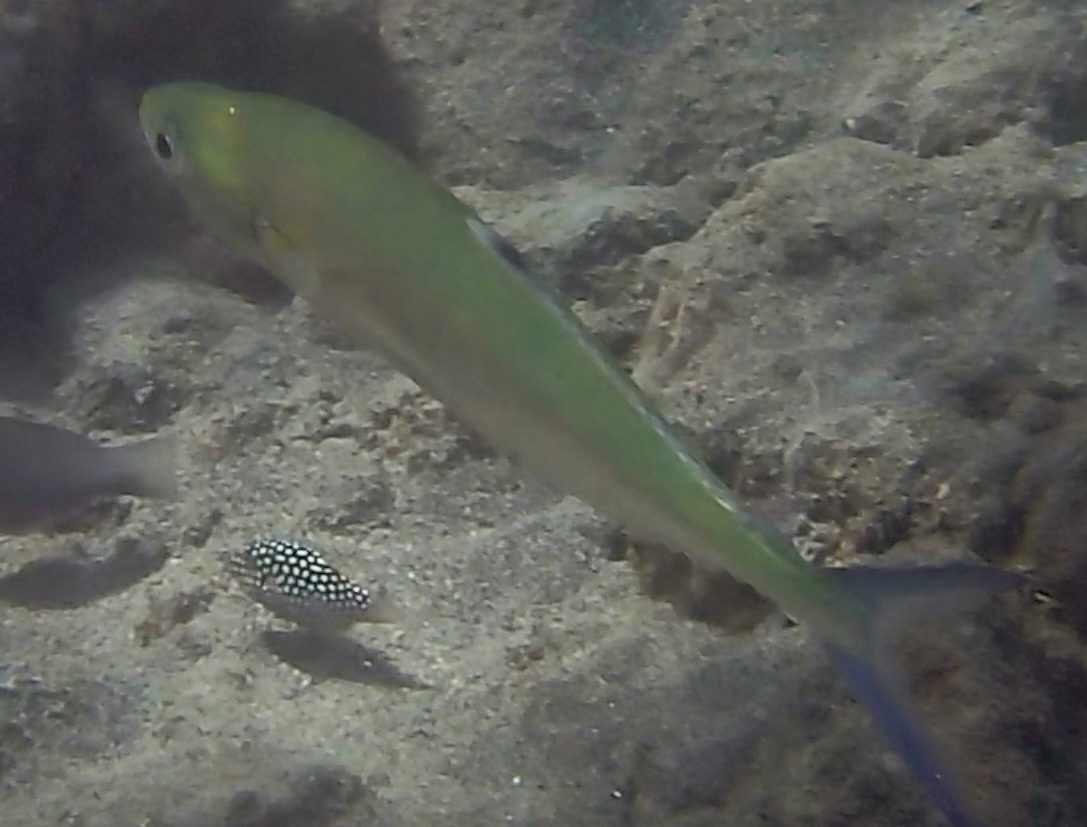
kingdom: Animalia
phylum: Chordata
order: Perciformes
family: Carangidae
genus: Scomberoides
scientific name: Scomberoides lysan
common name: Doublespotted queenfish
